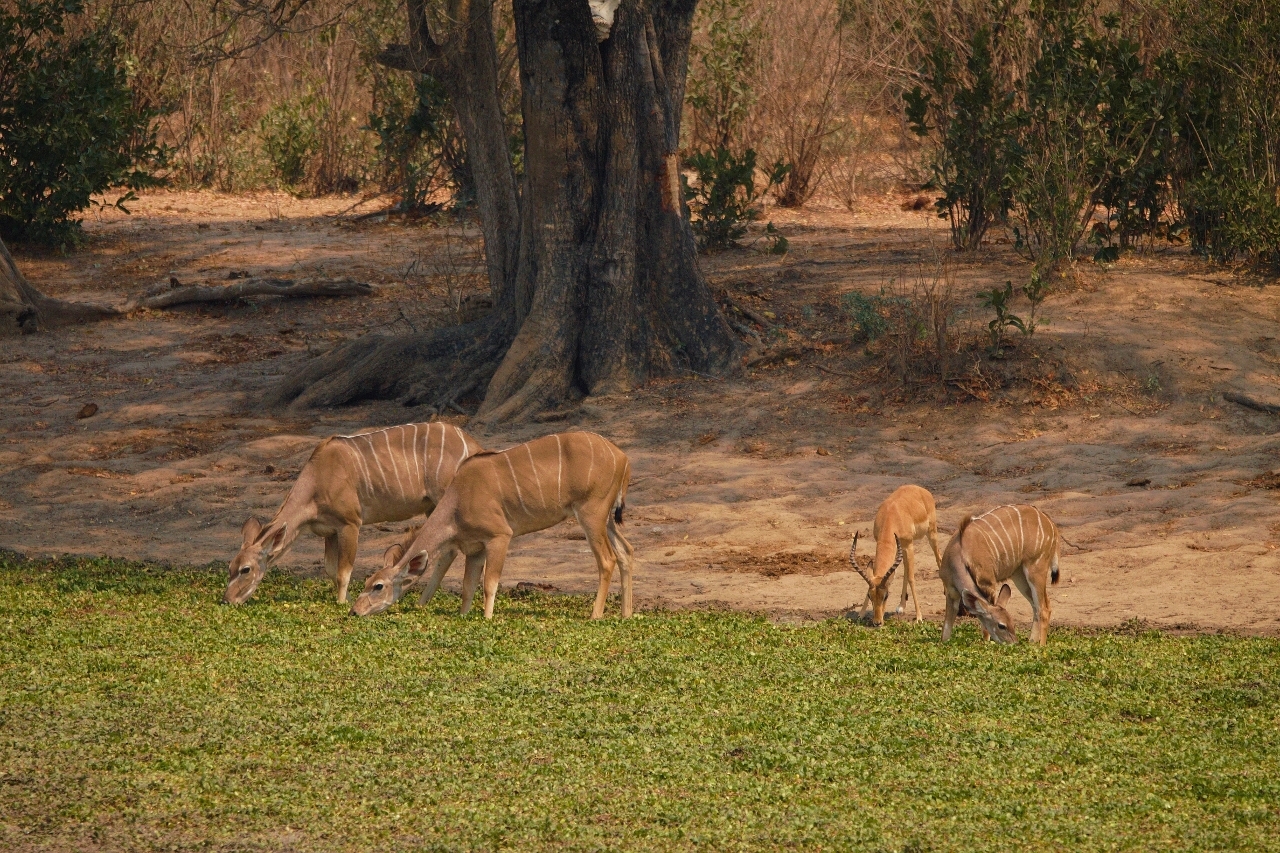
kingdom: Animalia
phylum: Chordata
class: Mammalia
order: Artiodactyla
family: Bovidae
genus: Tragelaphus
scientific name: Tragelaphus strepsiceros
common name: Greater kudu
